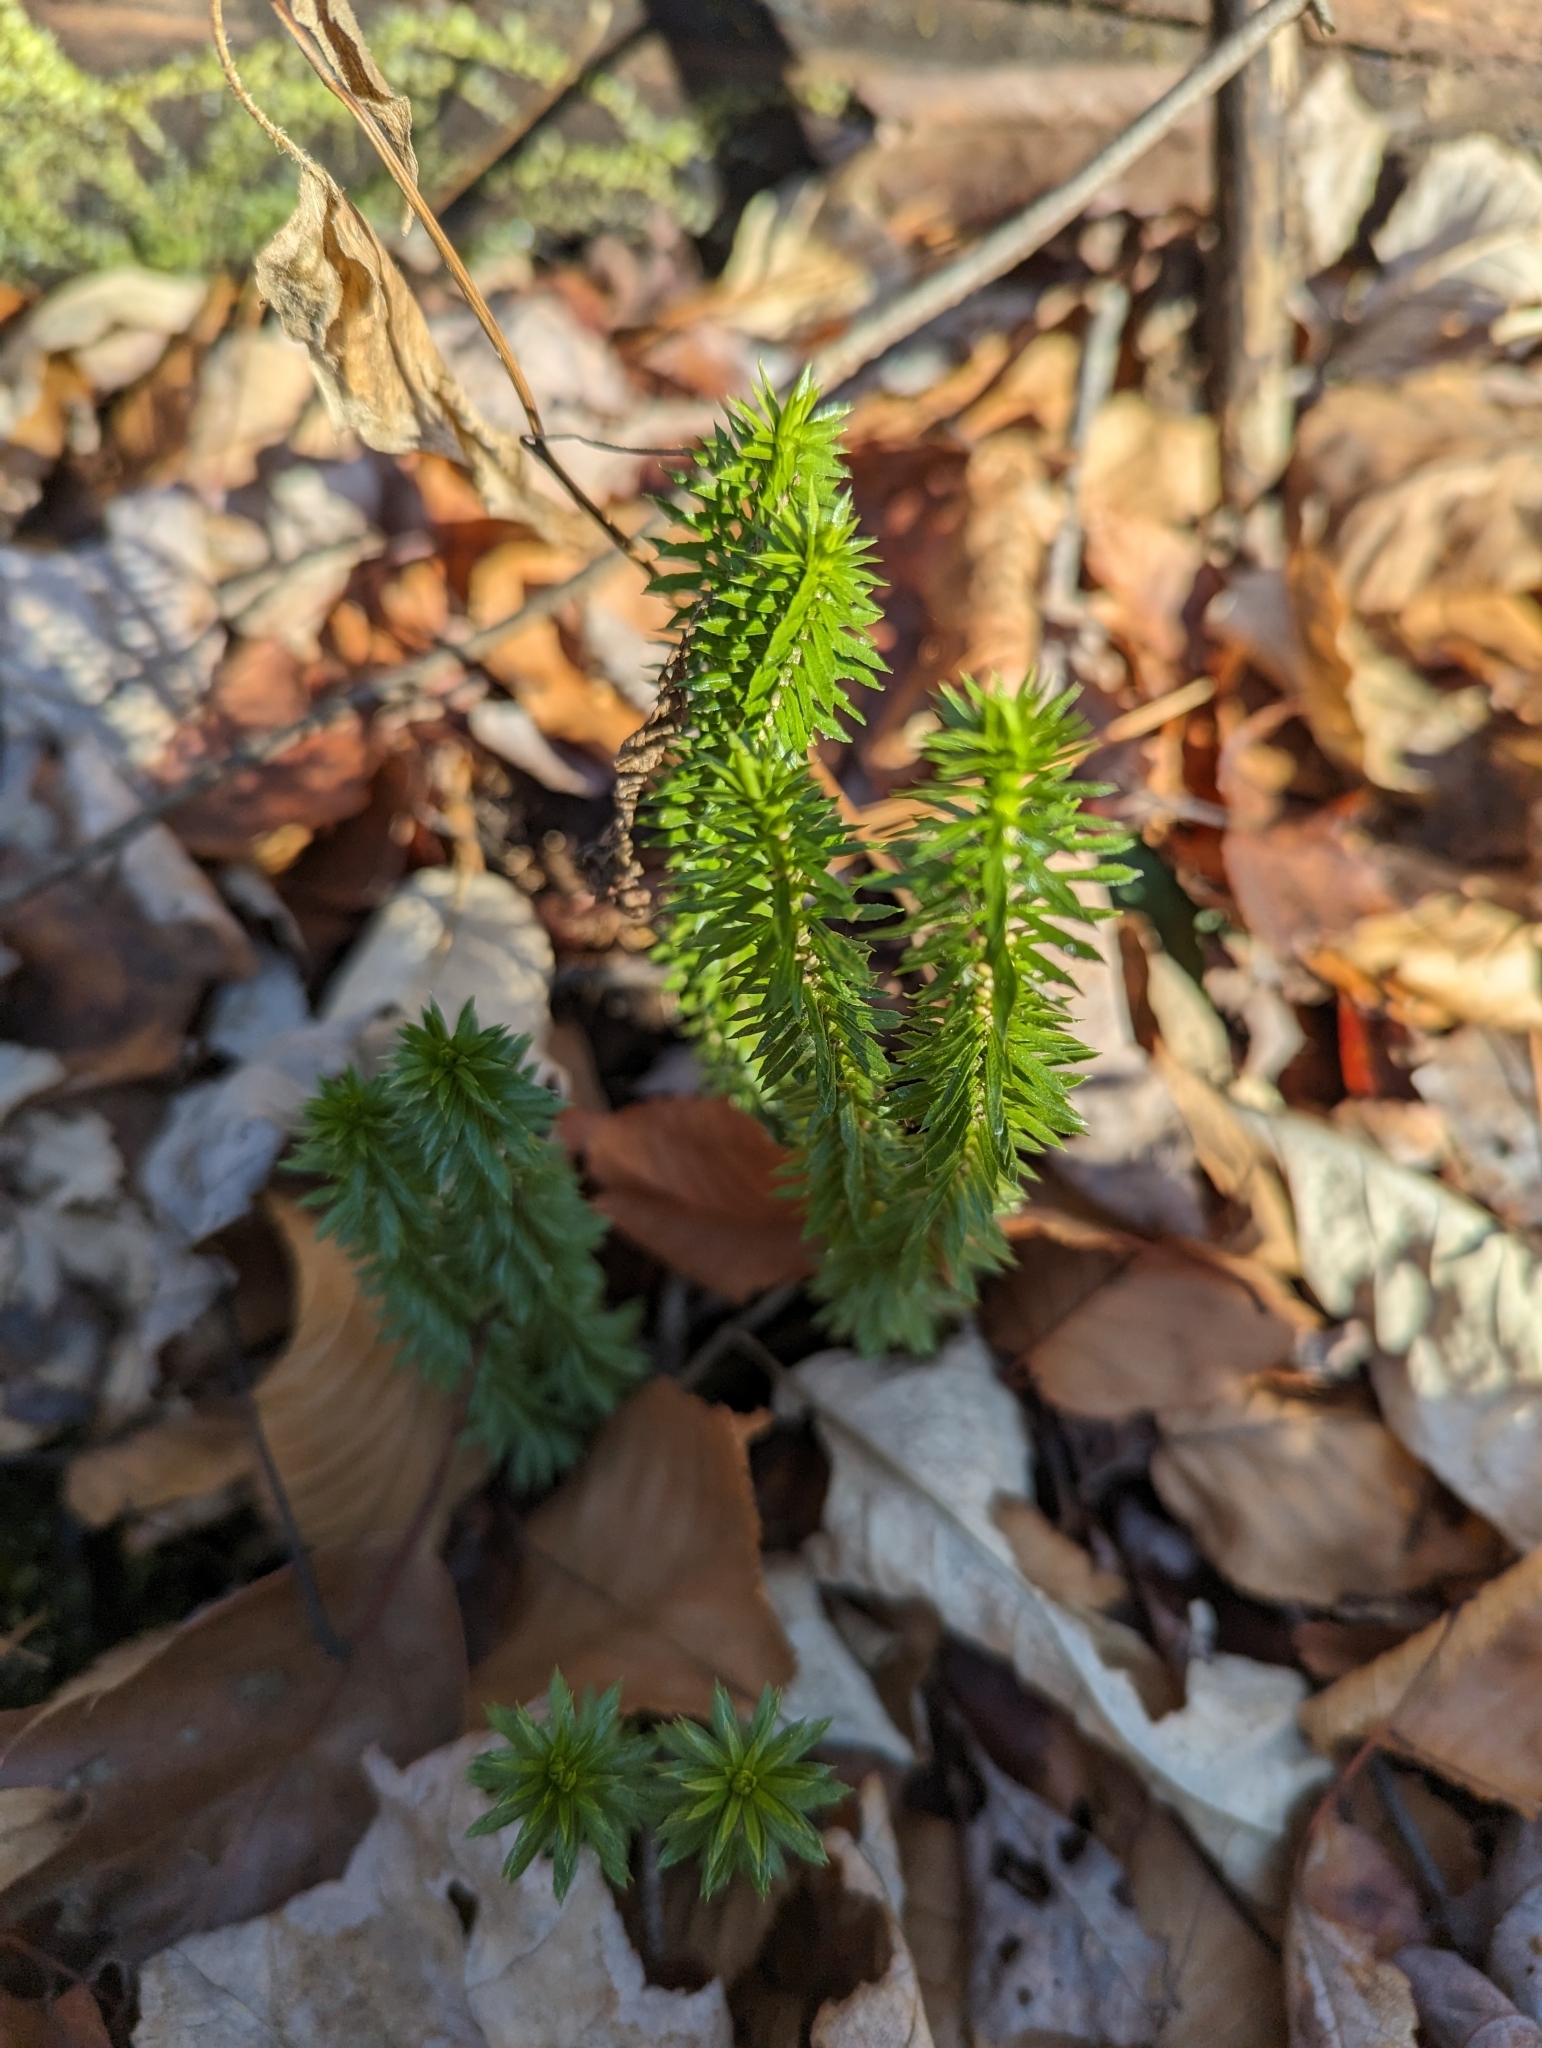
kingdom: Plantae
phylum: Tracheophyta
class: Lycopodiopsida
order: Lycopodiales
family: Lycopodiaceae
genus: Huperzia
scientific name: Huperzia lucidula
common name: Shining clubmoss
